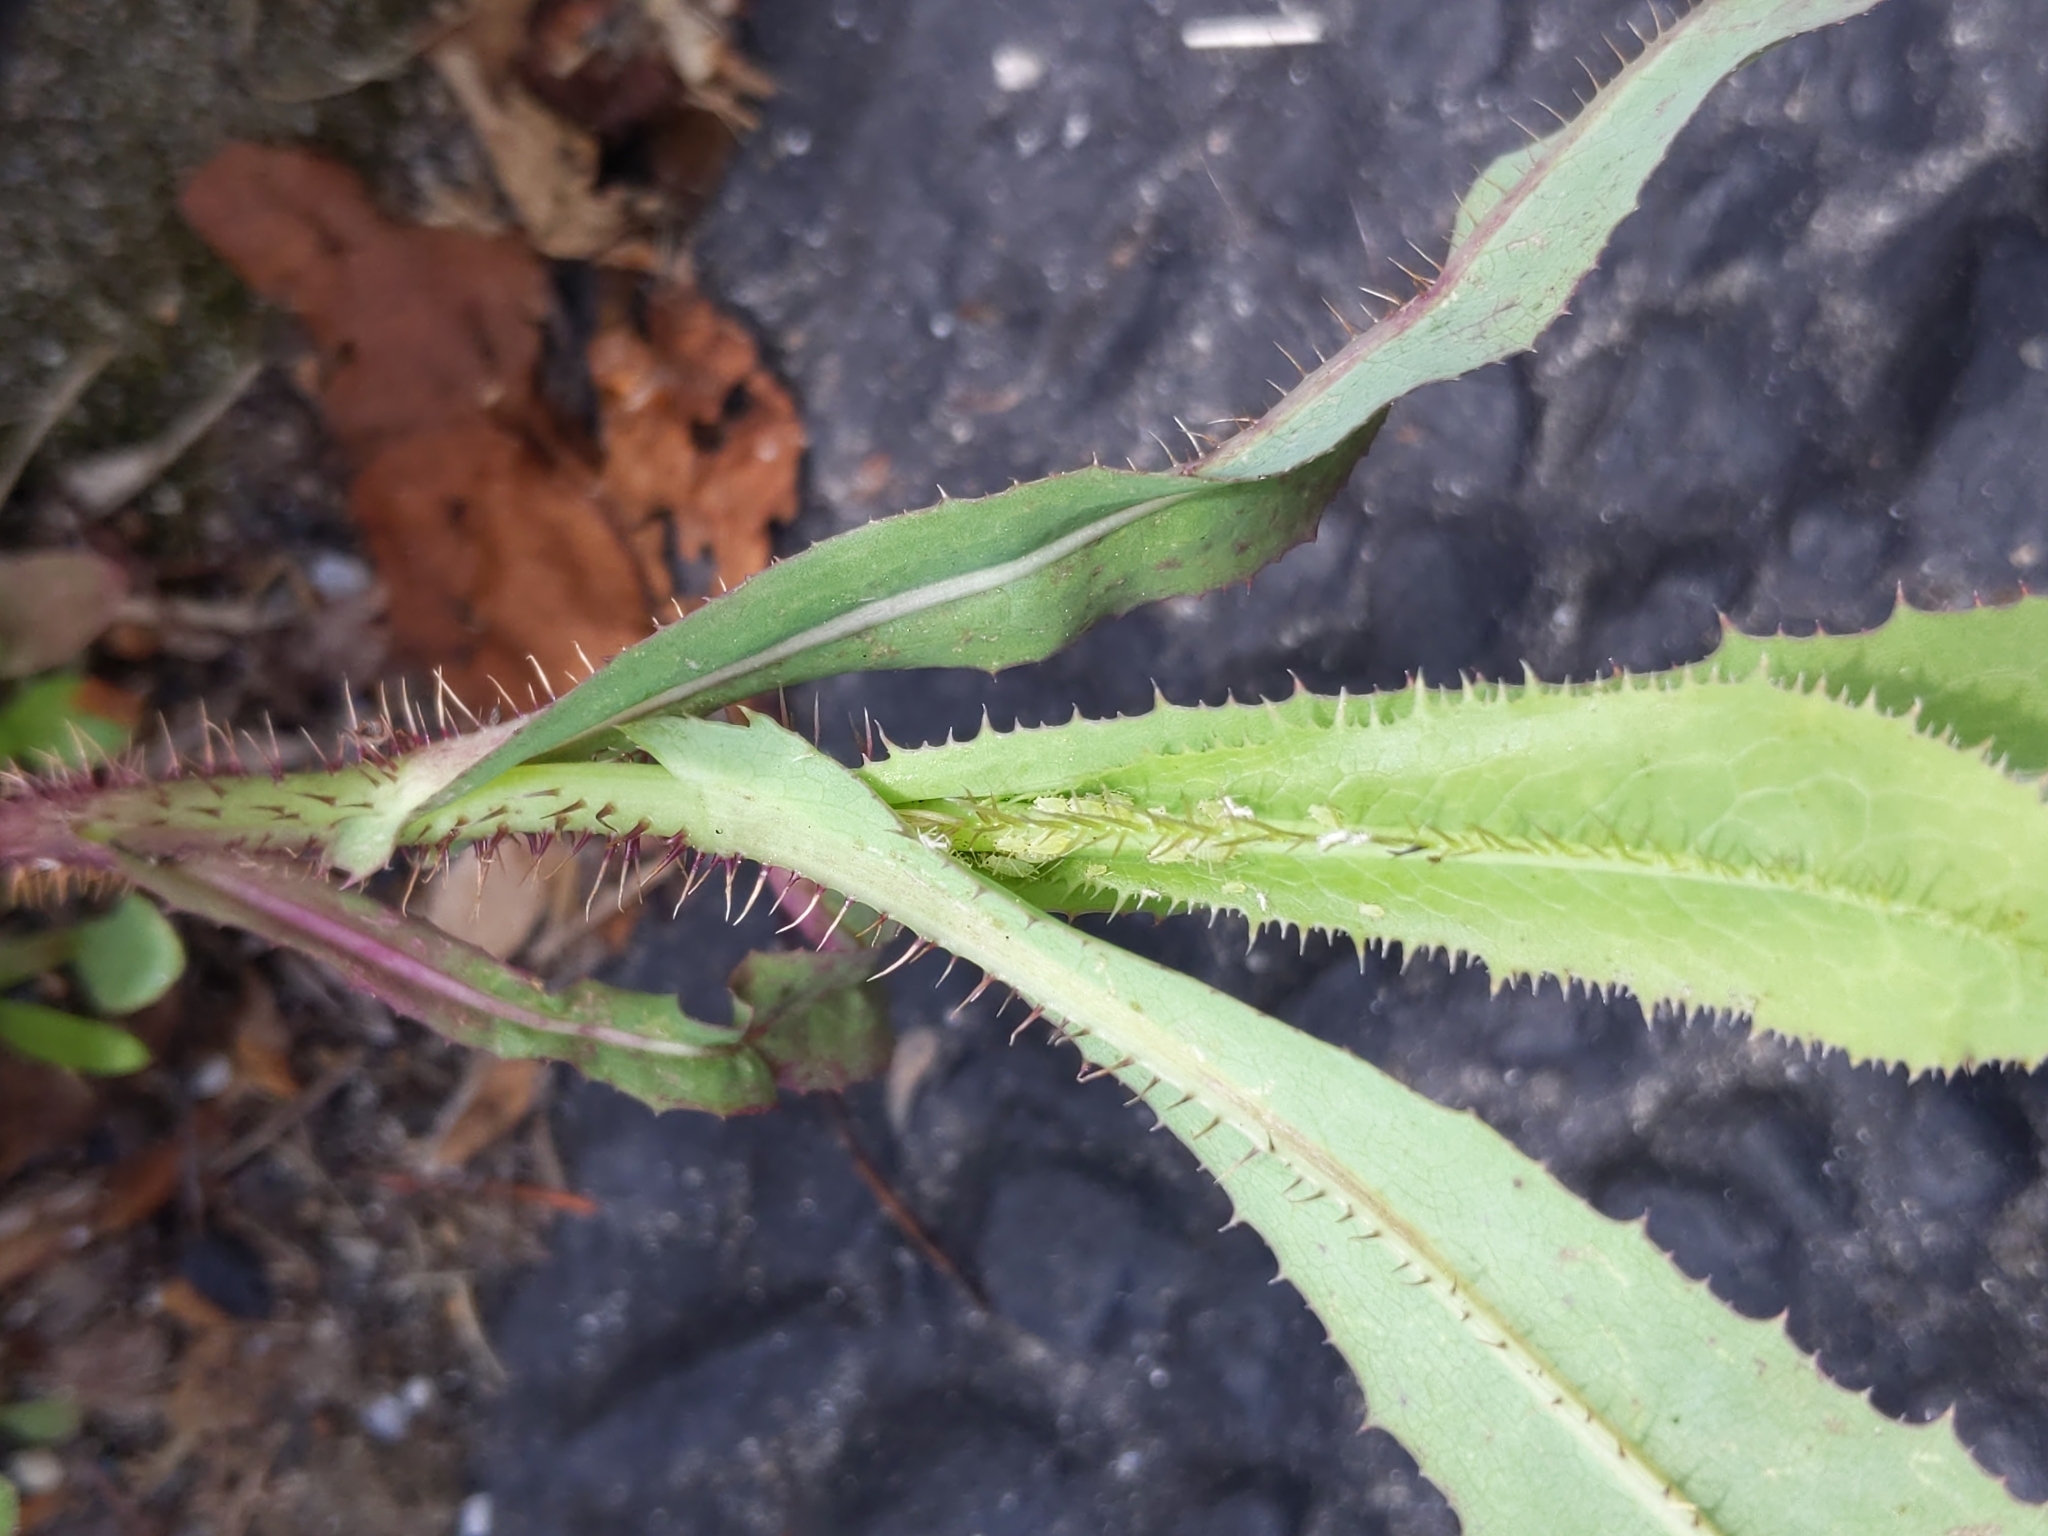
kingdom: Plantae
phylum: Tracheophyta
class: Magnoliopsida
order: Asterales
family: Asteraceae
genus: Lactuca
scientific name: Lactuca serriola
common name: Prickly lettuce
